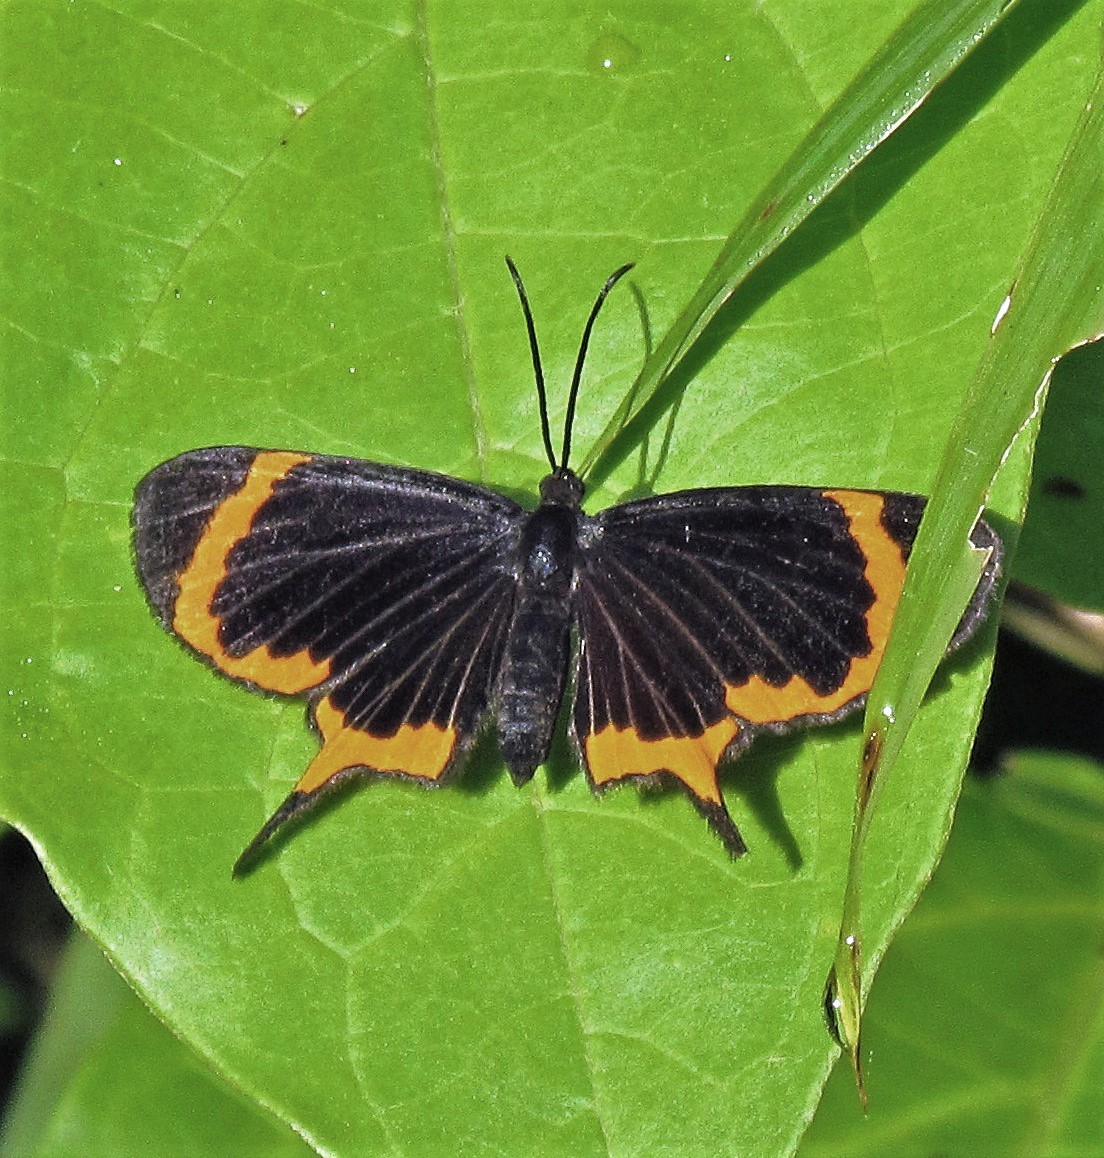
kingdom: Animalia
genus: Barbicornis
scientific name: Barbicornis basilis
